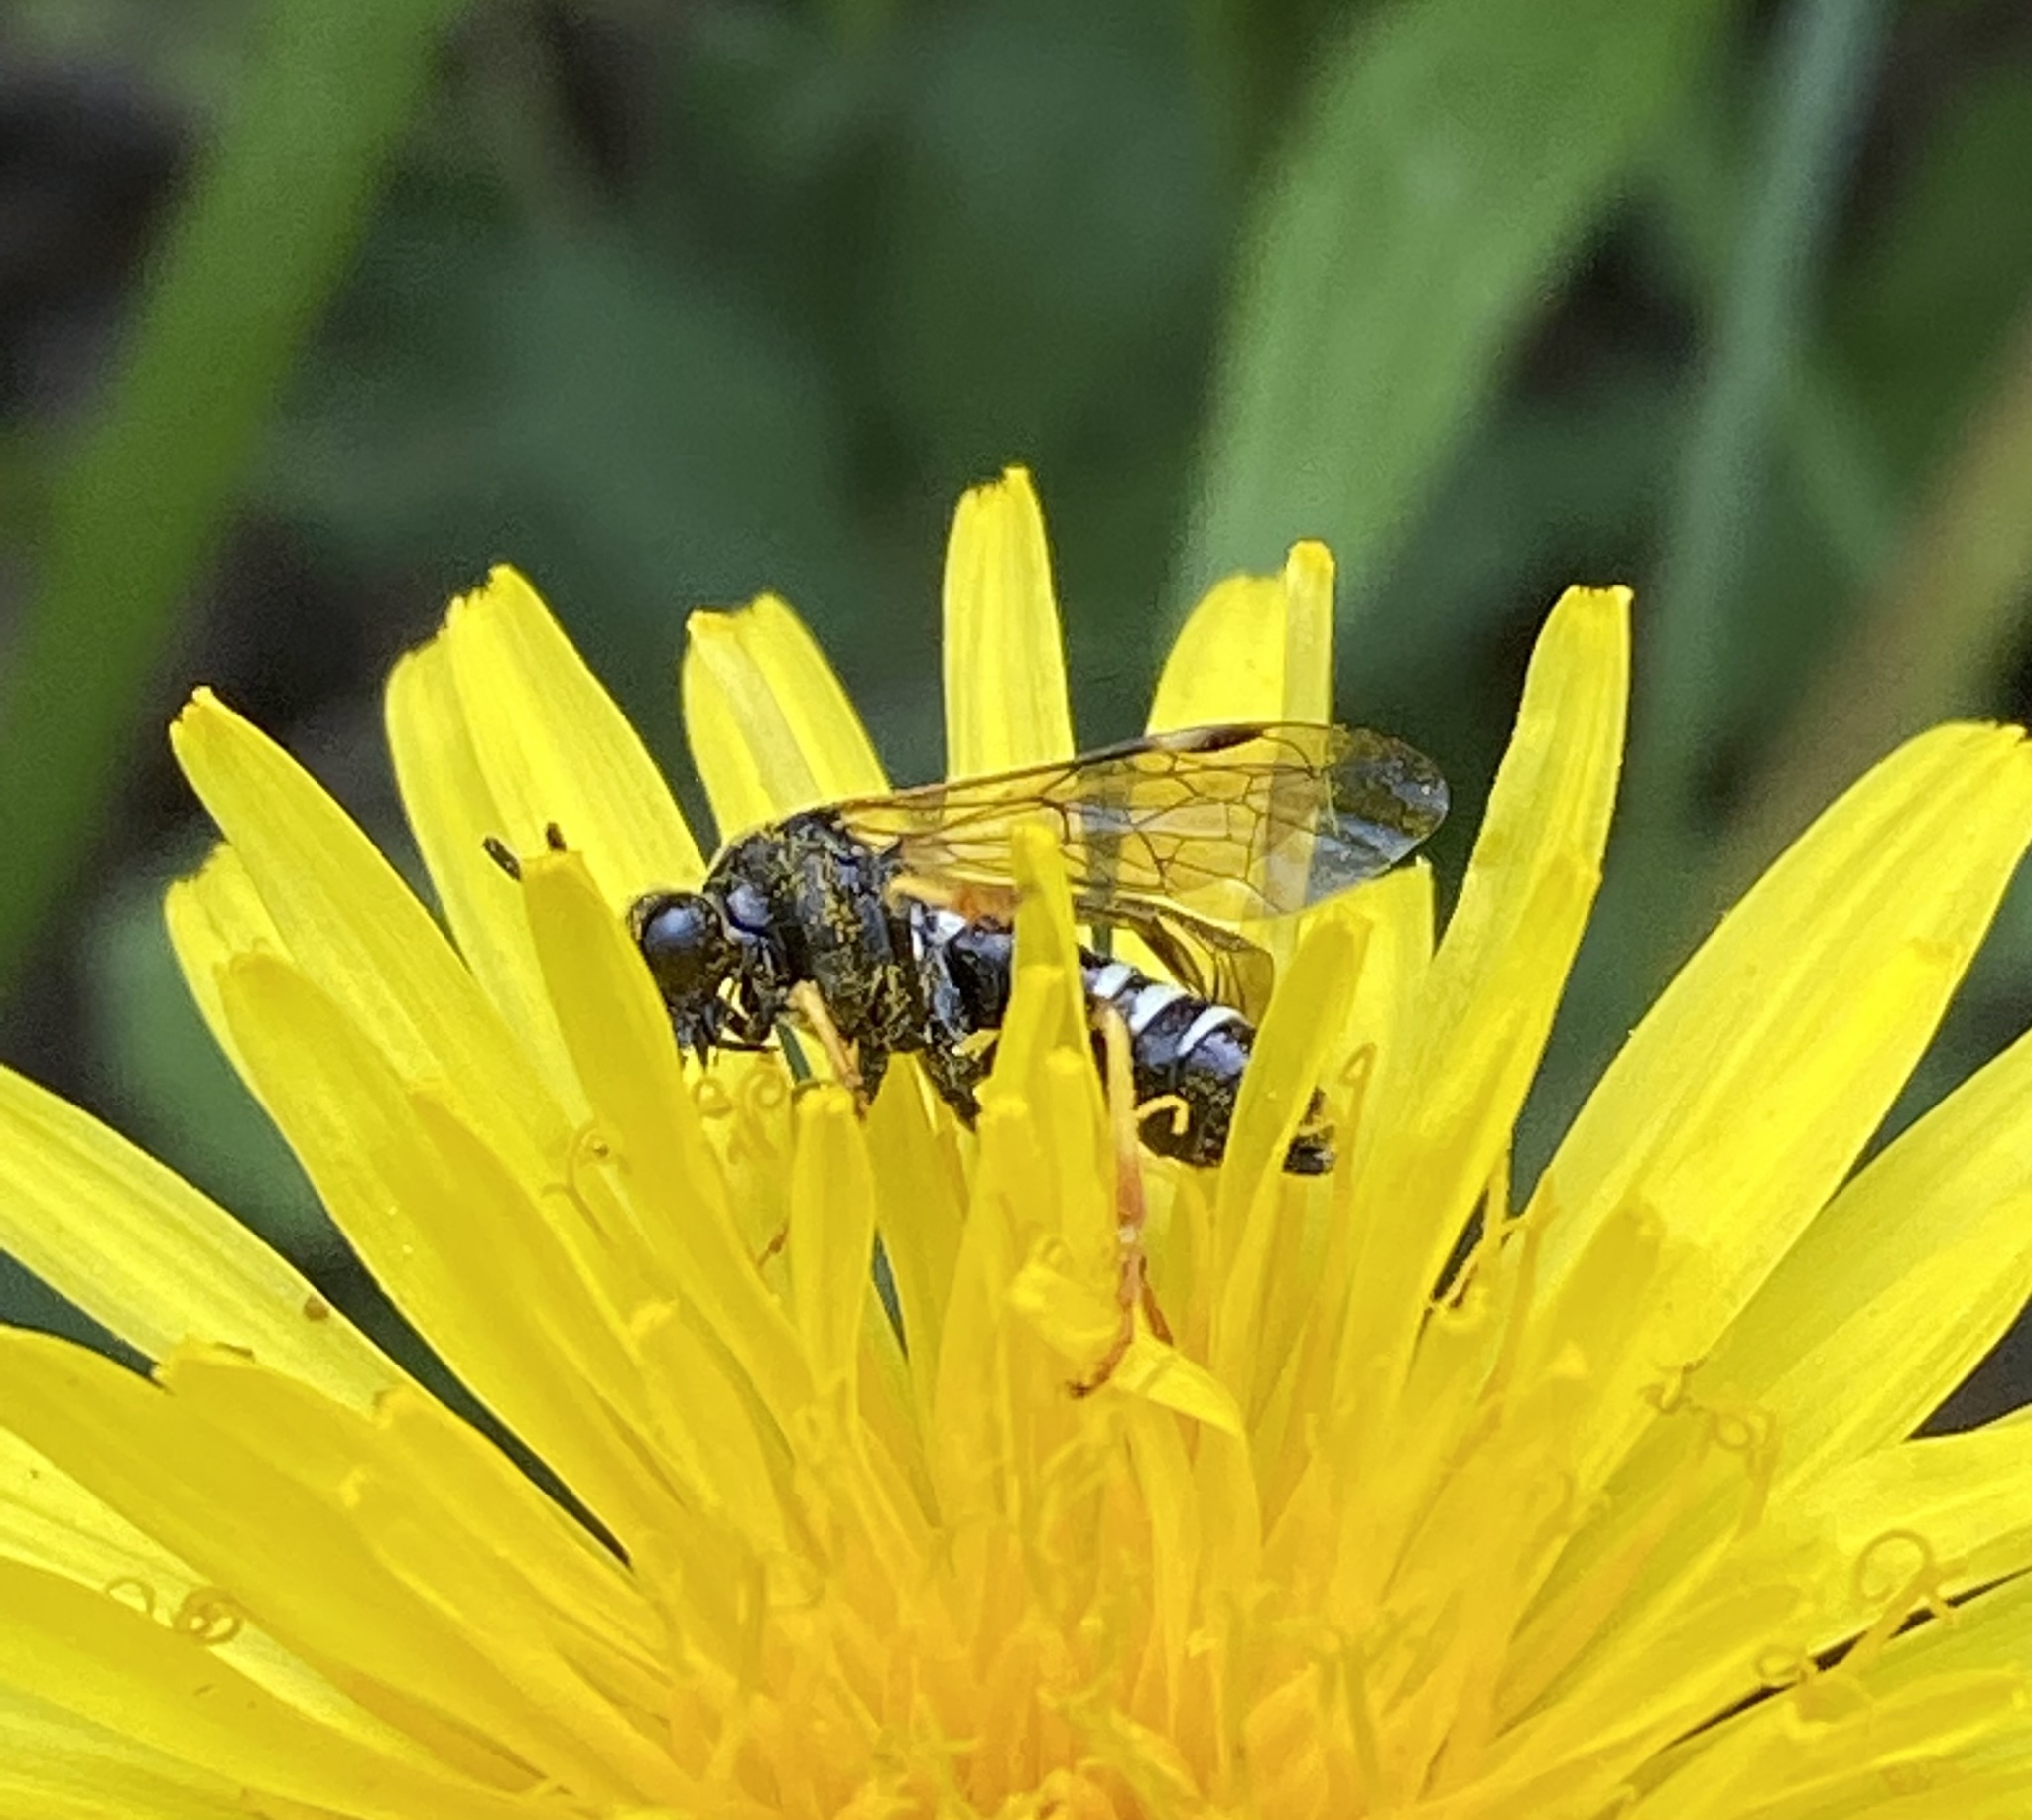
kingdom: Animalia
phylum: Arthropoda
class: Insecta
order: Hymenoptera
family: Tenthredinidae
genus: Tenthredo
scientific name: Tenthredo koehleri
